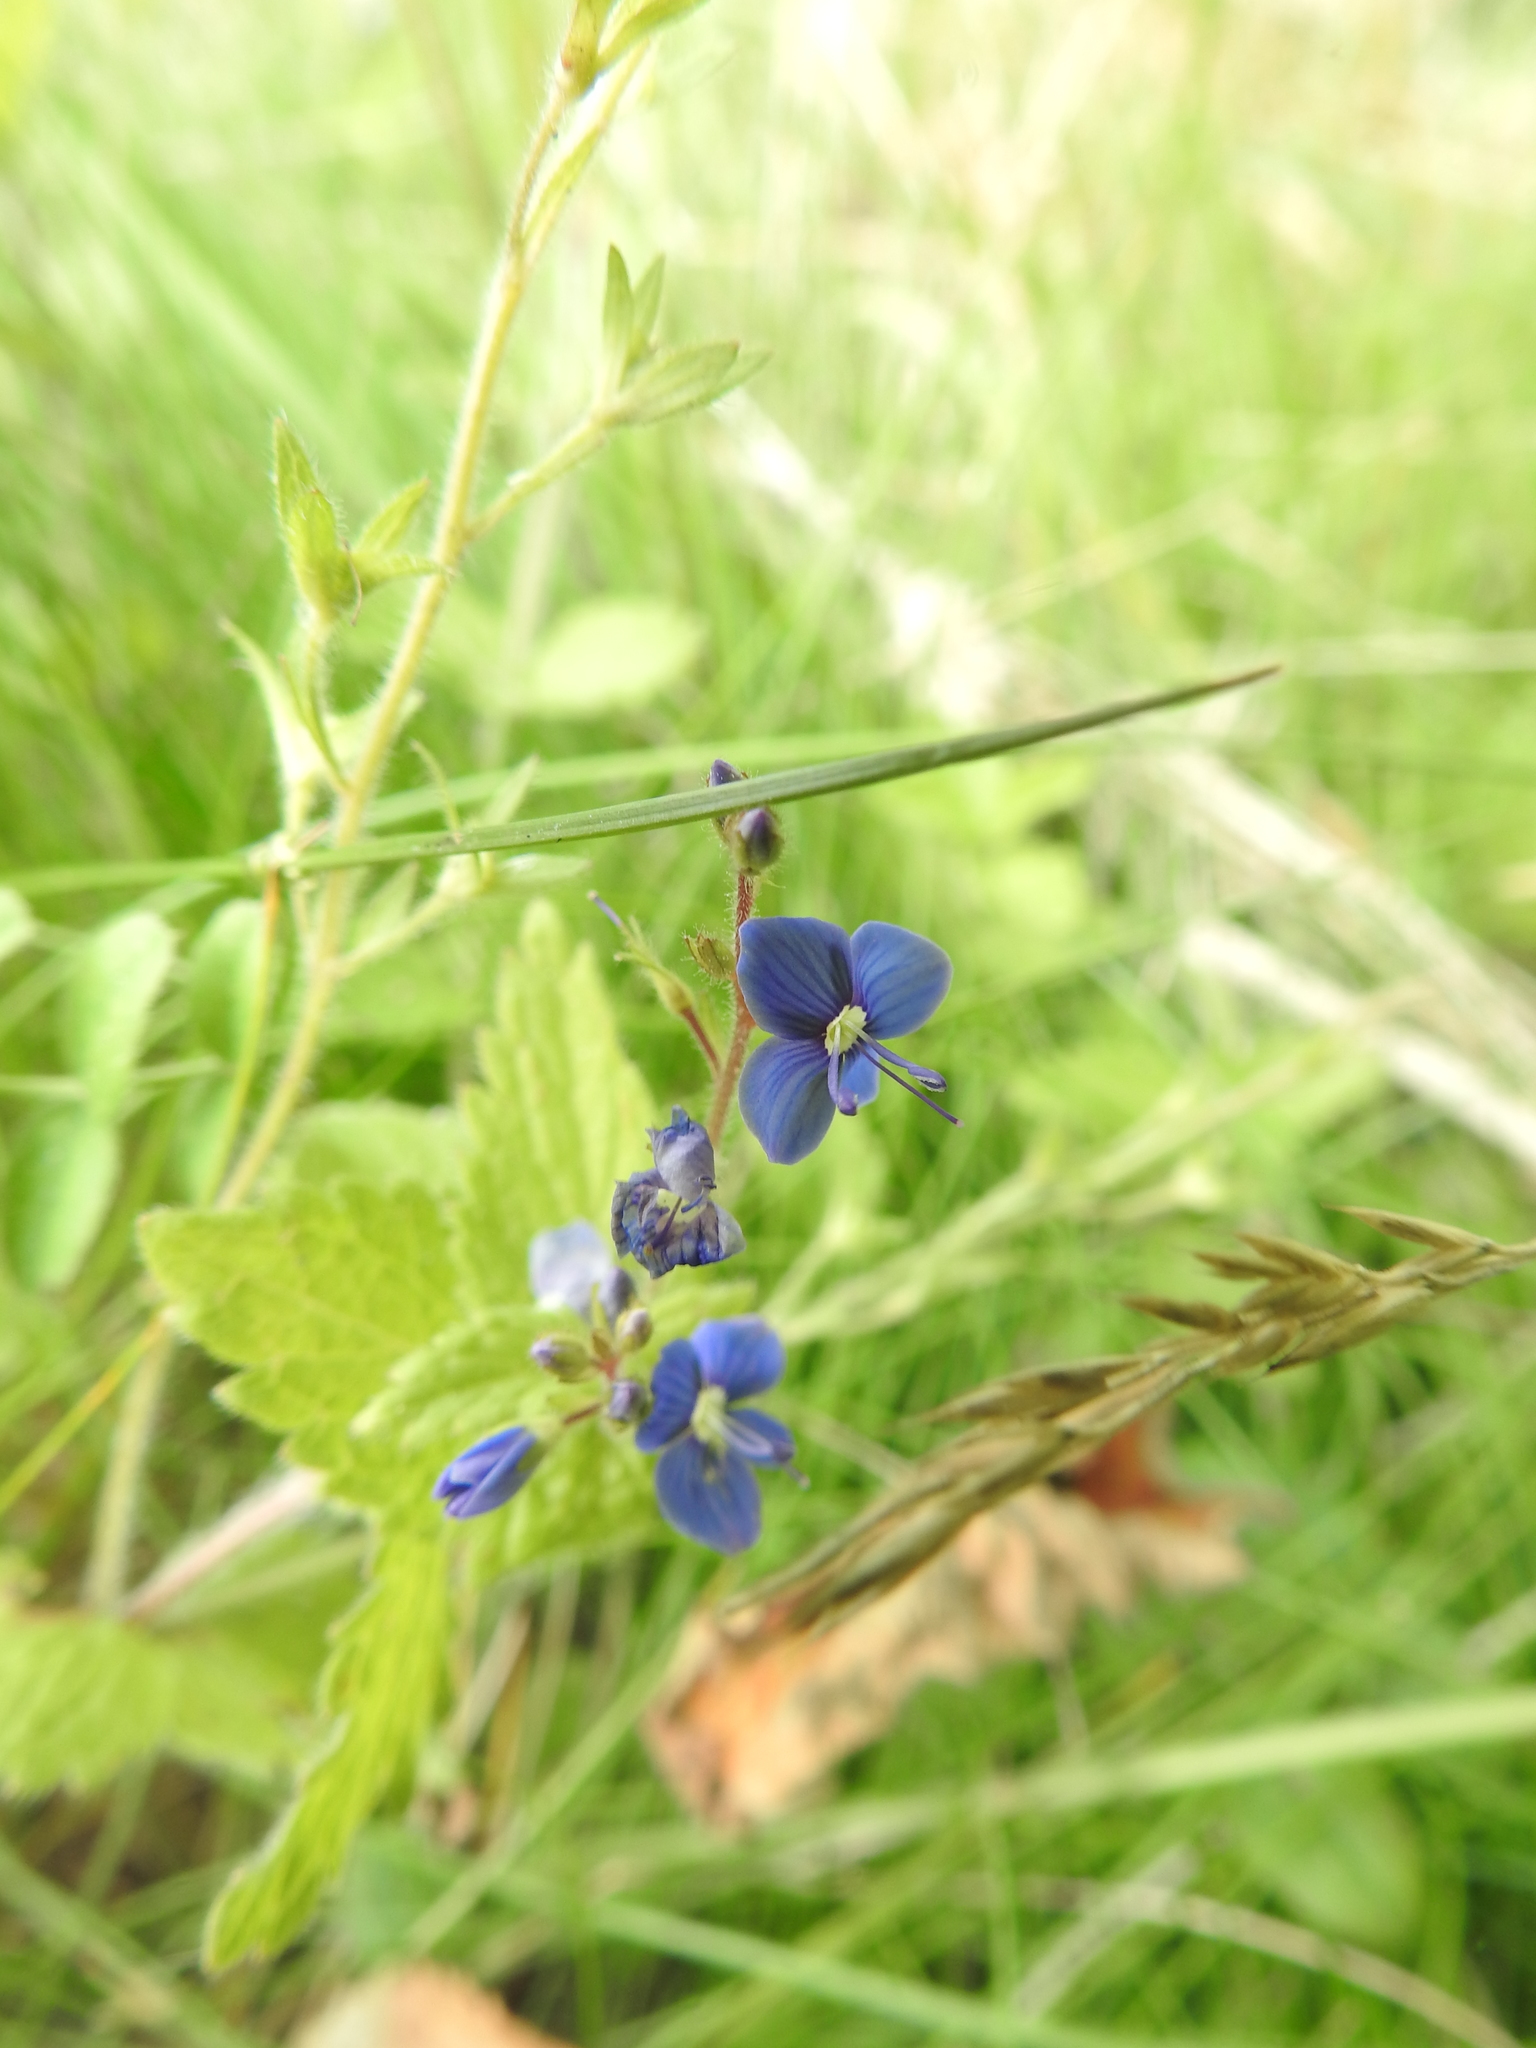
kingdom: Plantae
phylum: Tracheophyta
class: Magnoliopsida
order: Lamiales
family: Plantaginaceae
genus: Veronica
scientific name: Veronica chamaedrys
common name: Germander speedwell
